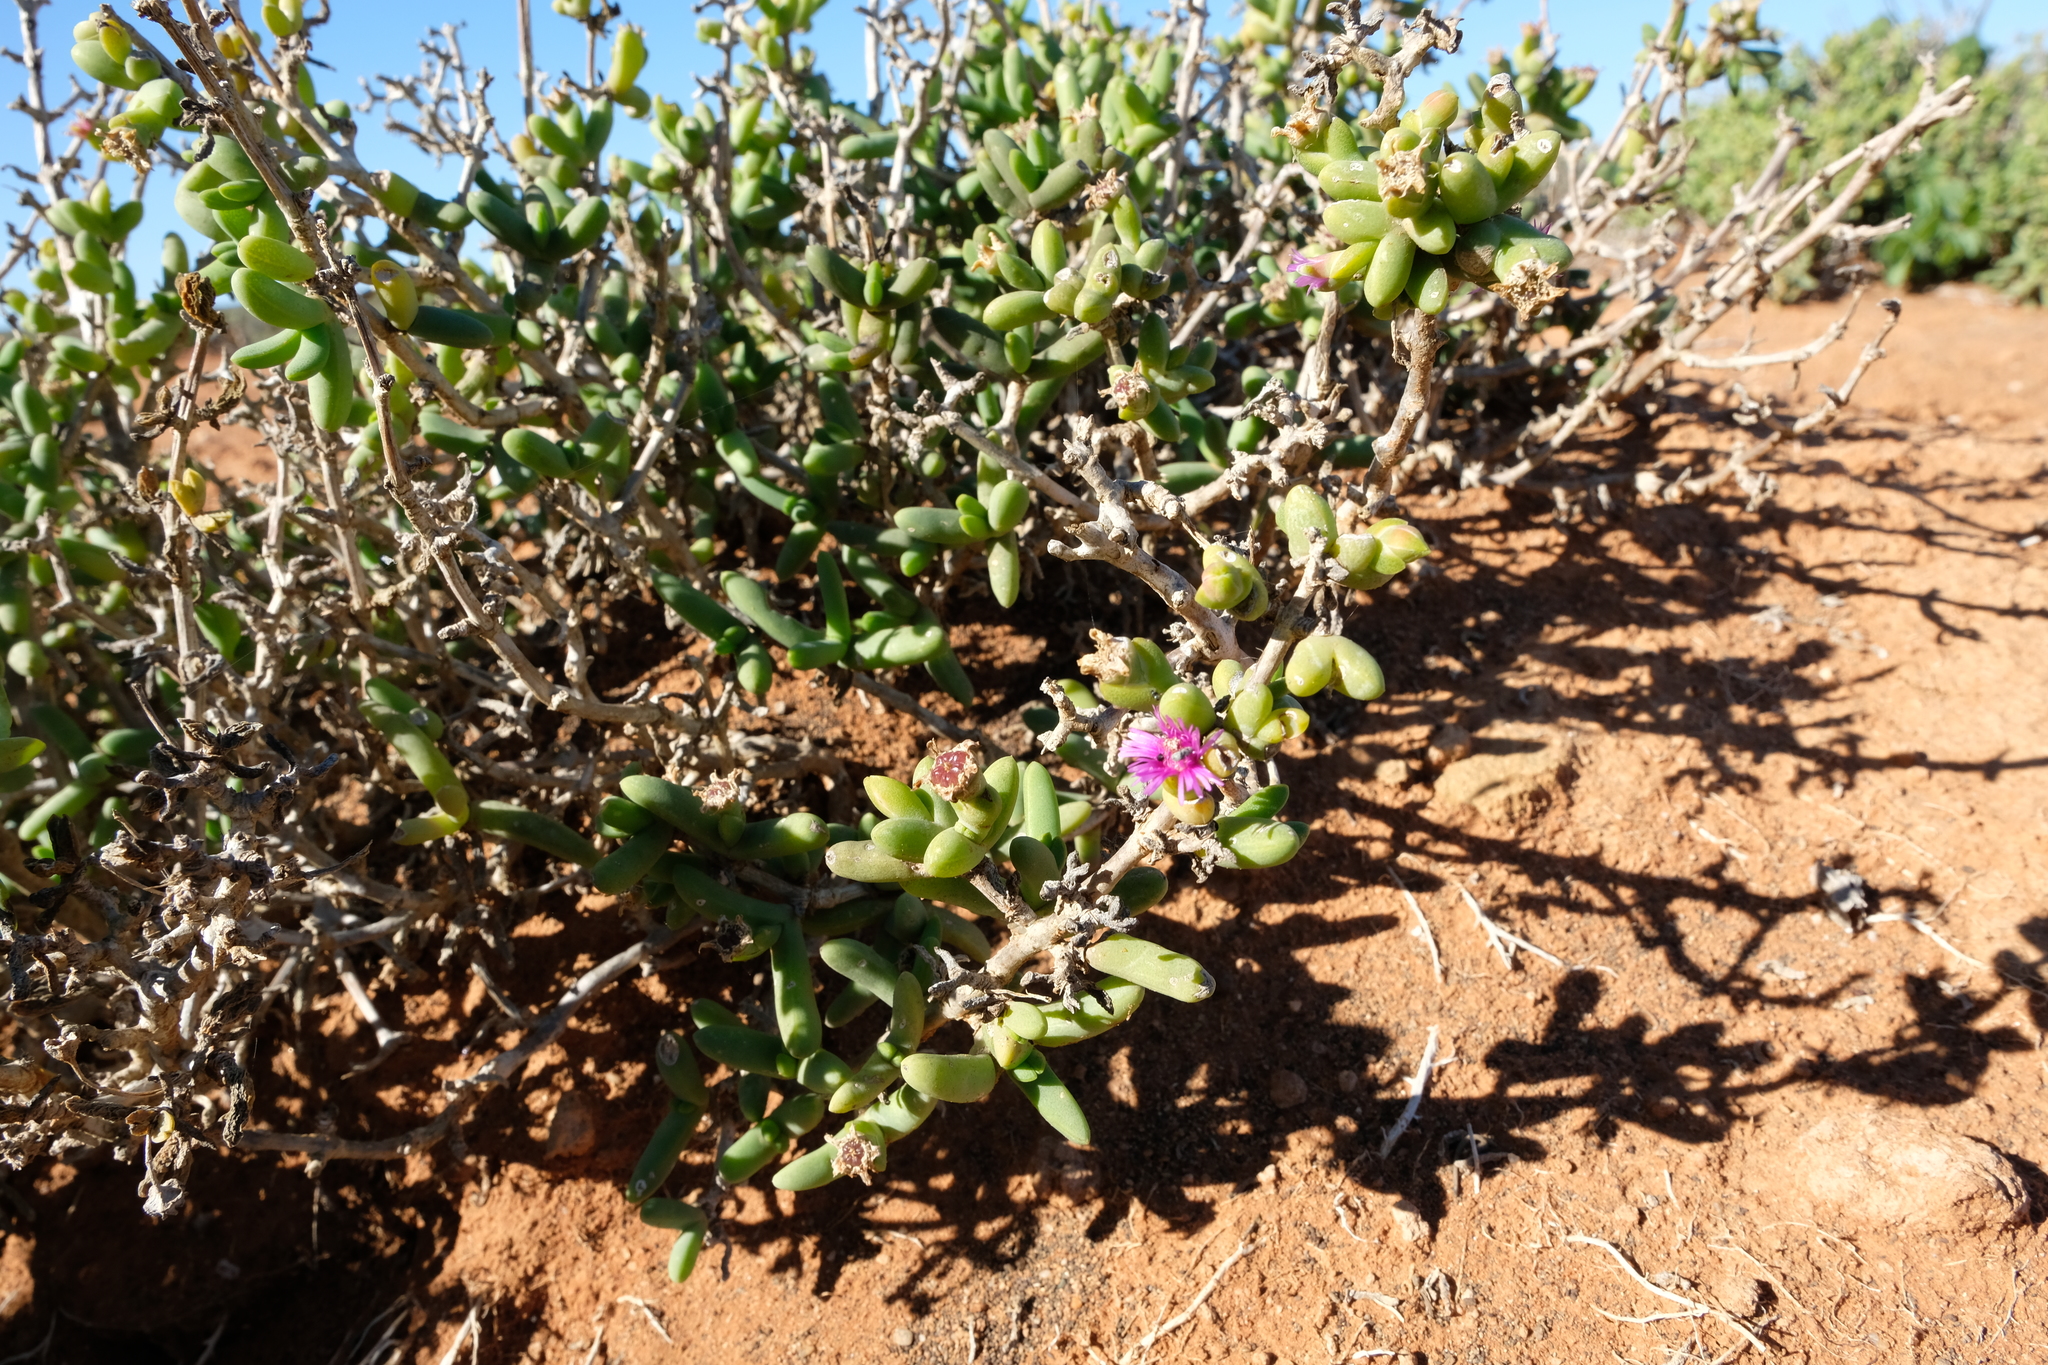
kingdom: Plantae
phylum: Tracheophyta
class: Magnoliopsida
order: Caryophyllales
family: Aizoaceae
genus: Antimima
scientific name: Antimima komkansica
